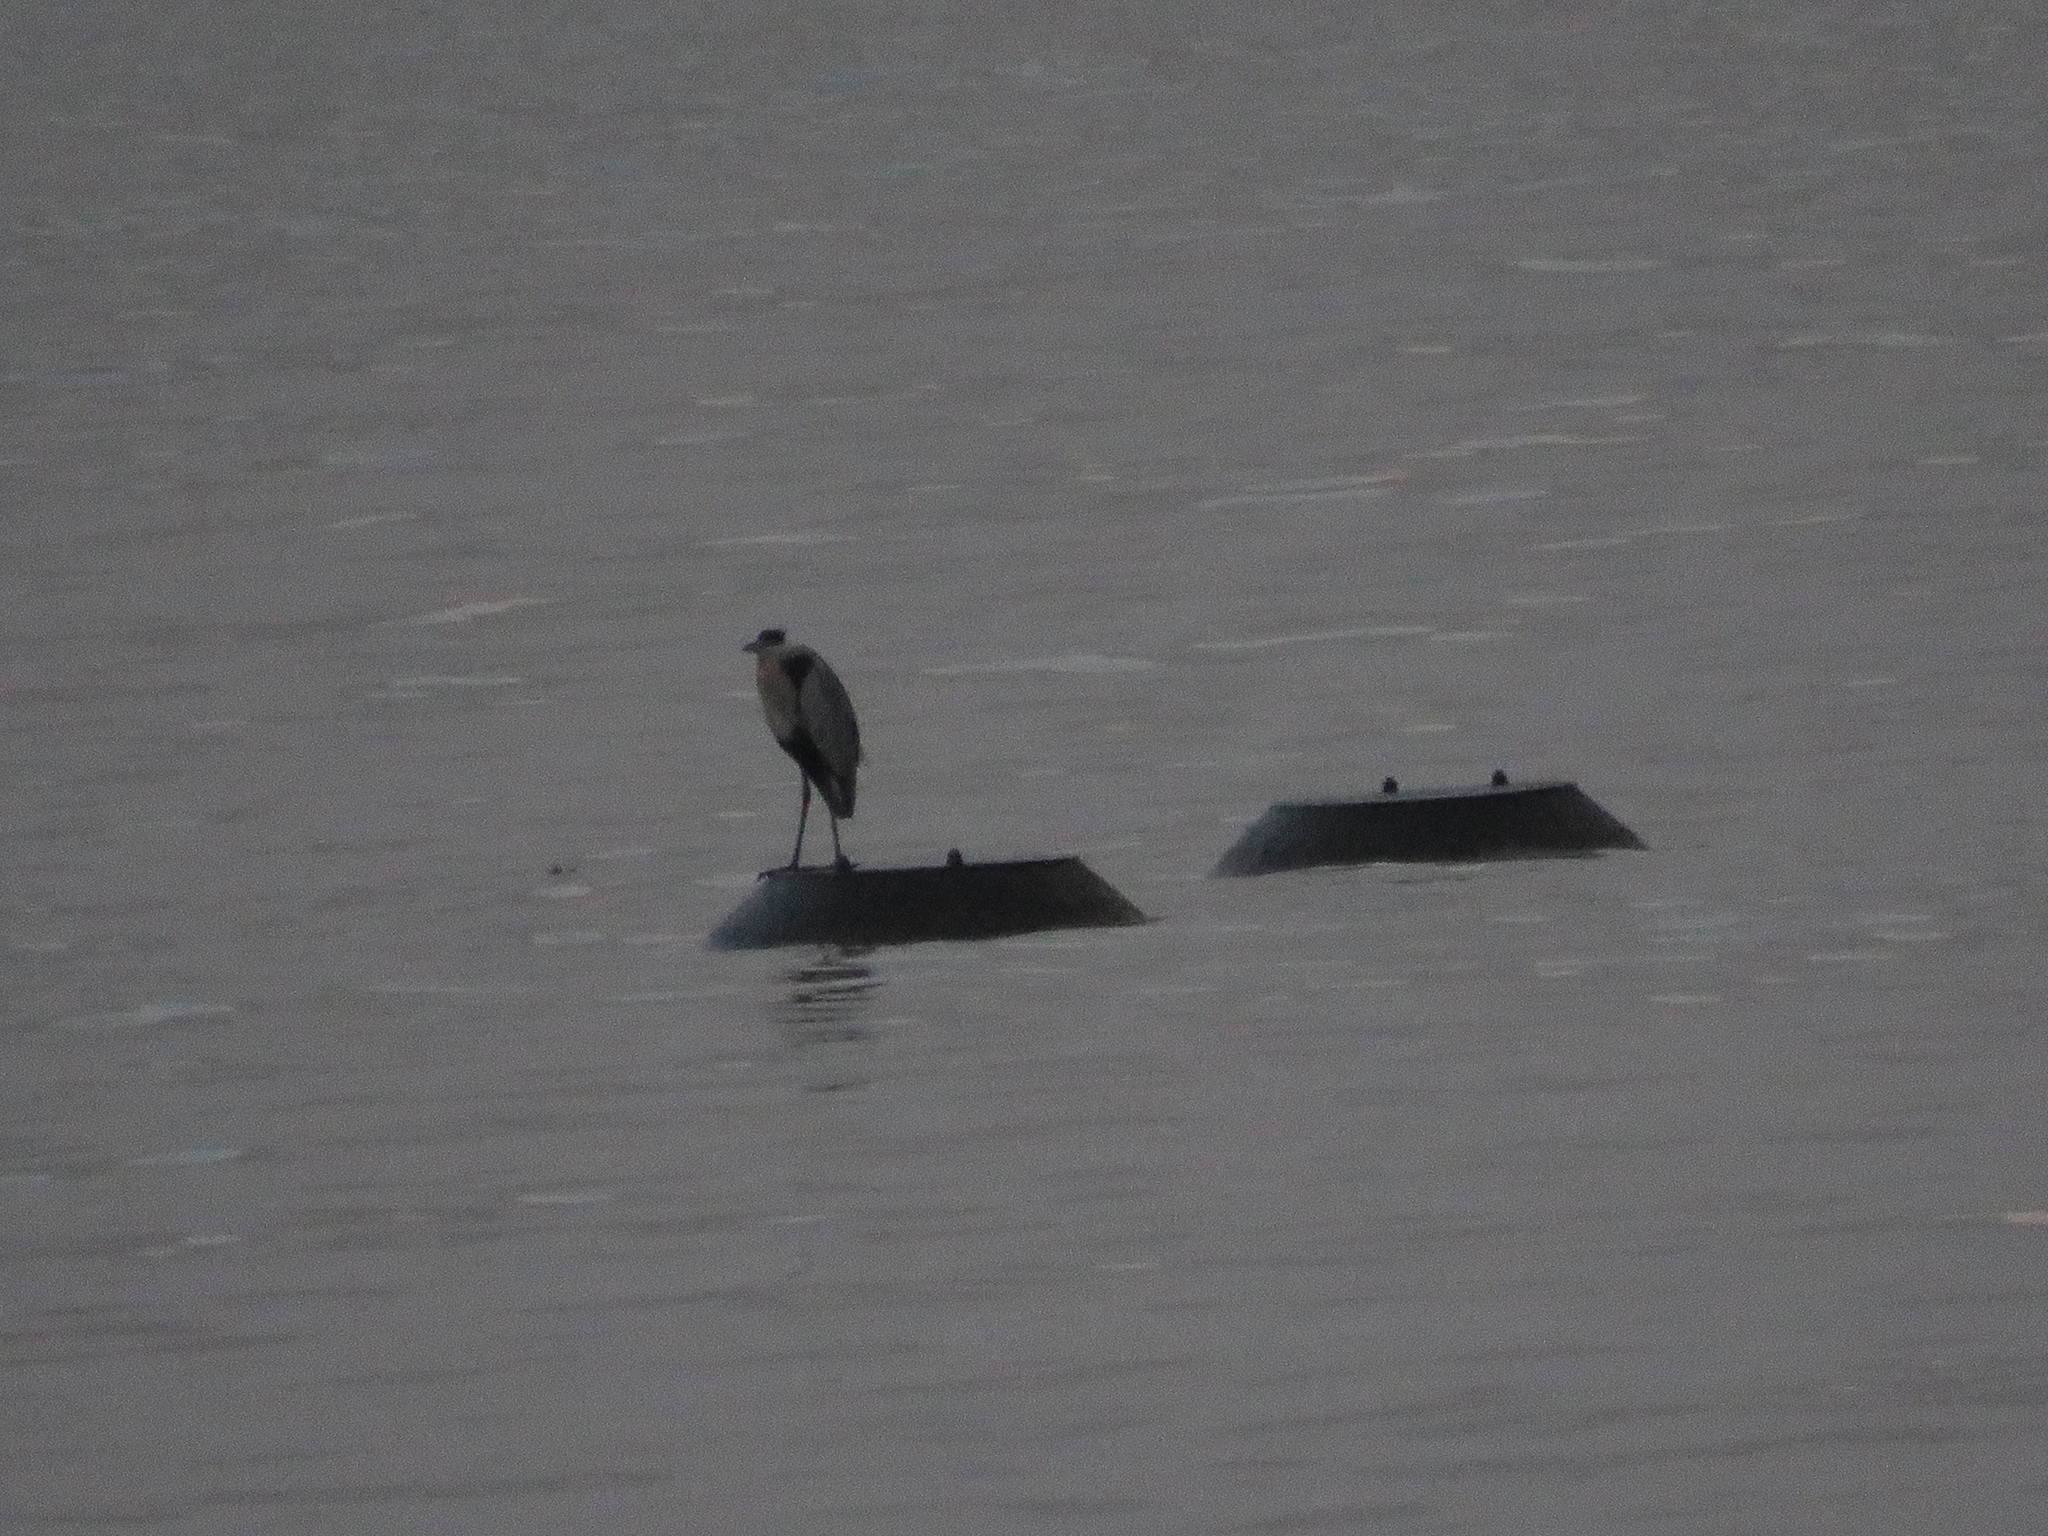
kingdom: Animalia
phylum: Chordata
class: Aves
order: Pelecaniformes
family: Ardeidae
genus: Ardea
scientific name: Ardea cocoi
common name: Cocoi heron
